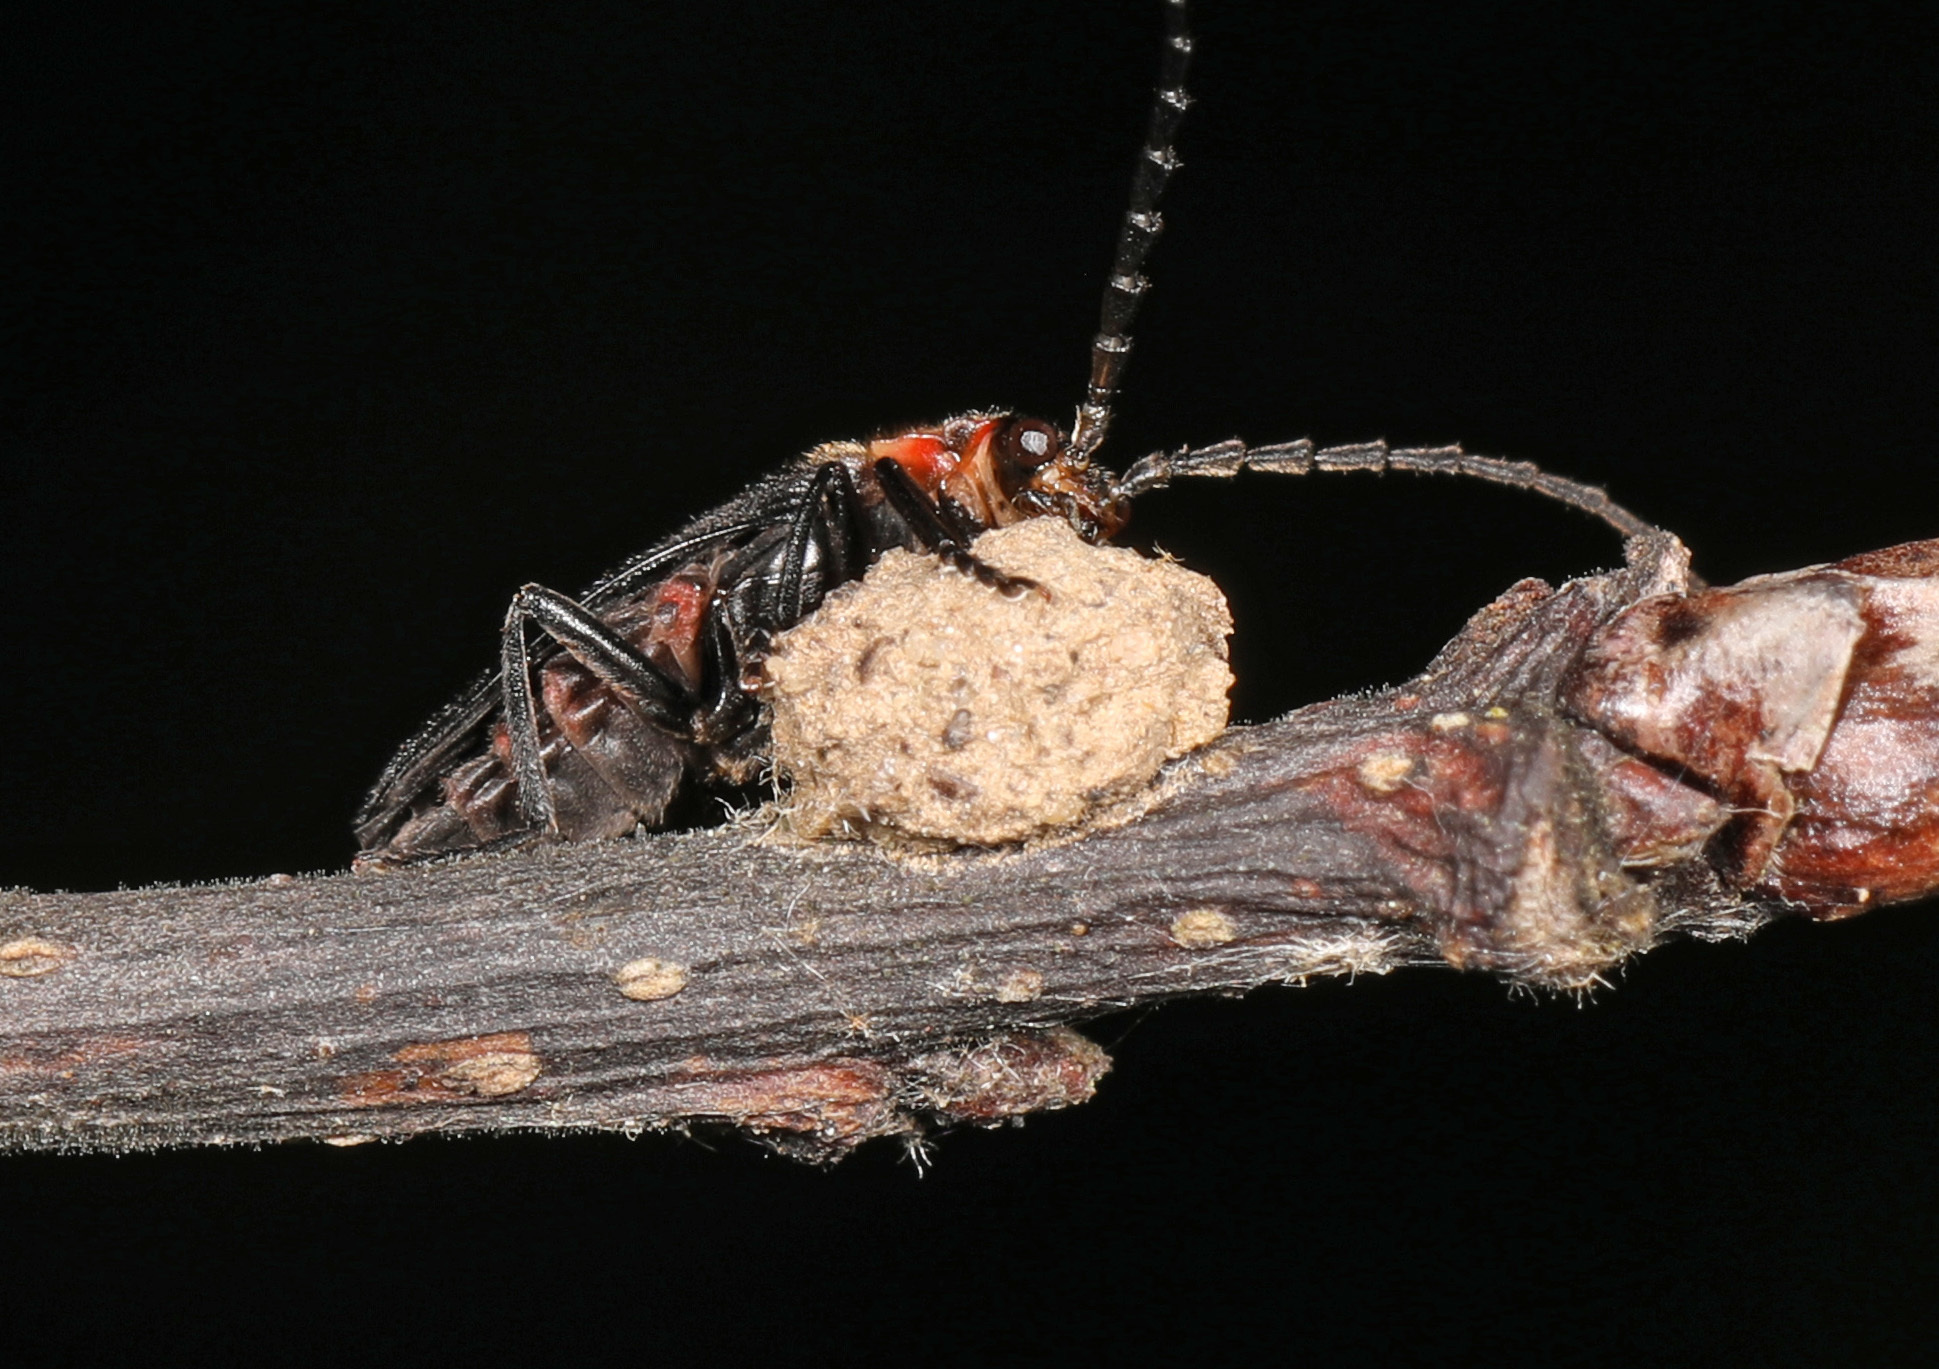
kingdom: Animalia
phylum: Arthropoda
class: Insecta
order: Coleoptera
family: Cantharidae
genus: Polemius
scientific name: Polemius
